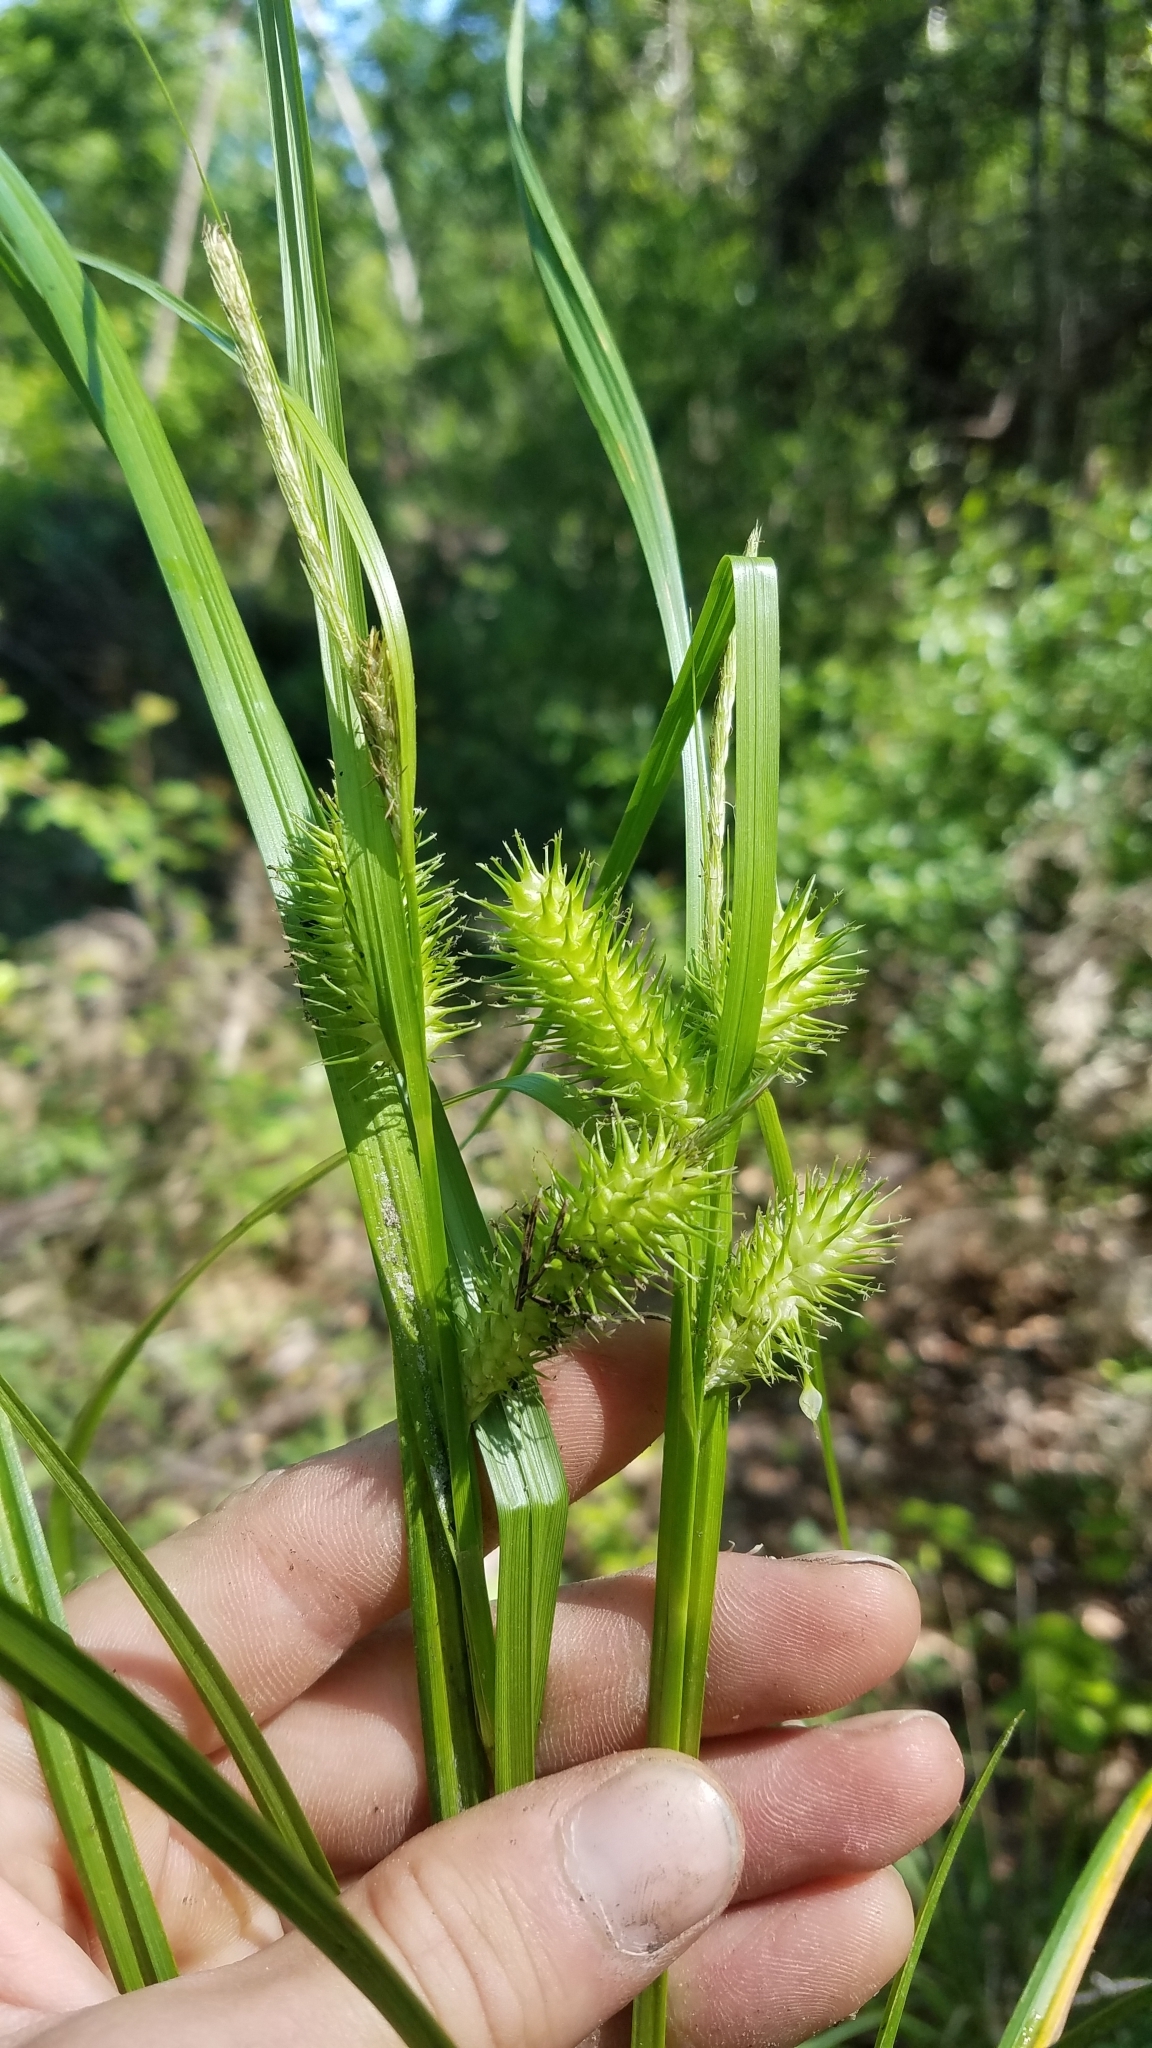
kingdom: Plantae
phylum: Tracheophyta
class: Liliopsida
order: Poales
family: Cyperaceae
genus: Carex
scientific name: Carex lurida
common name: Sallow sedge
